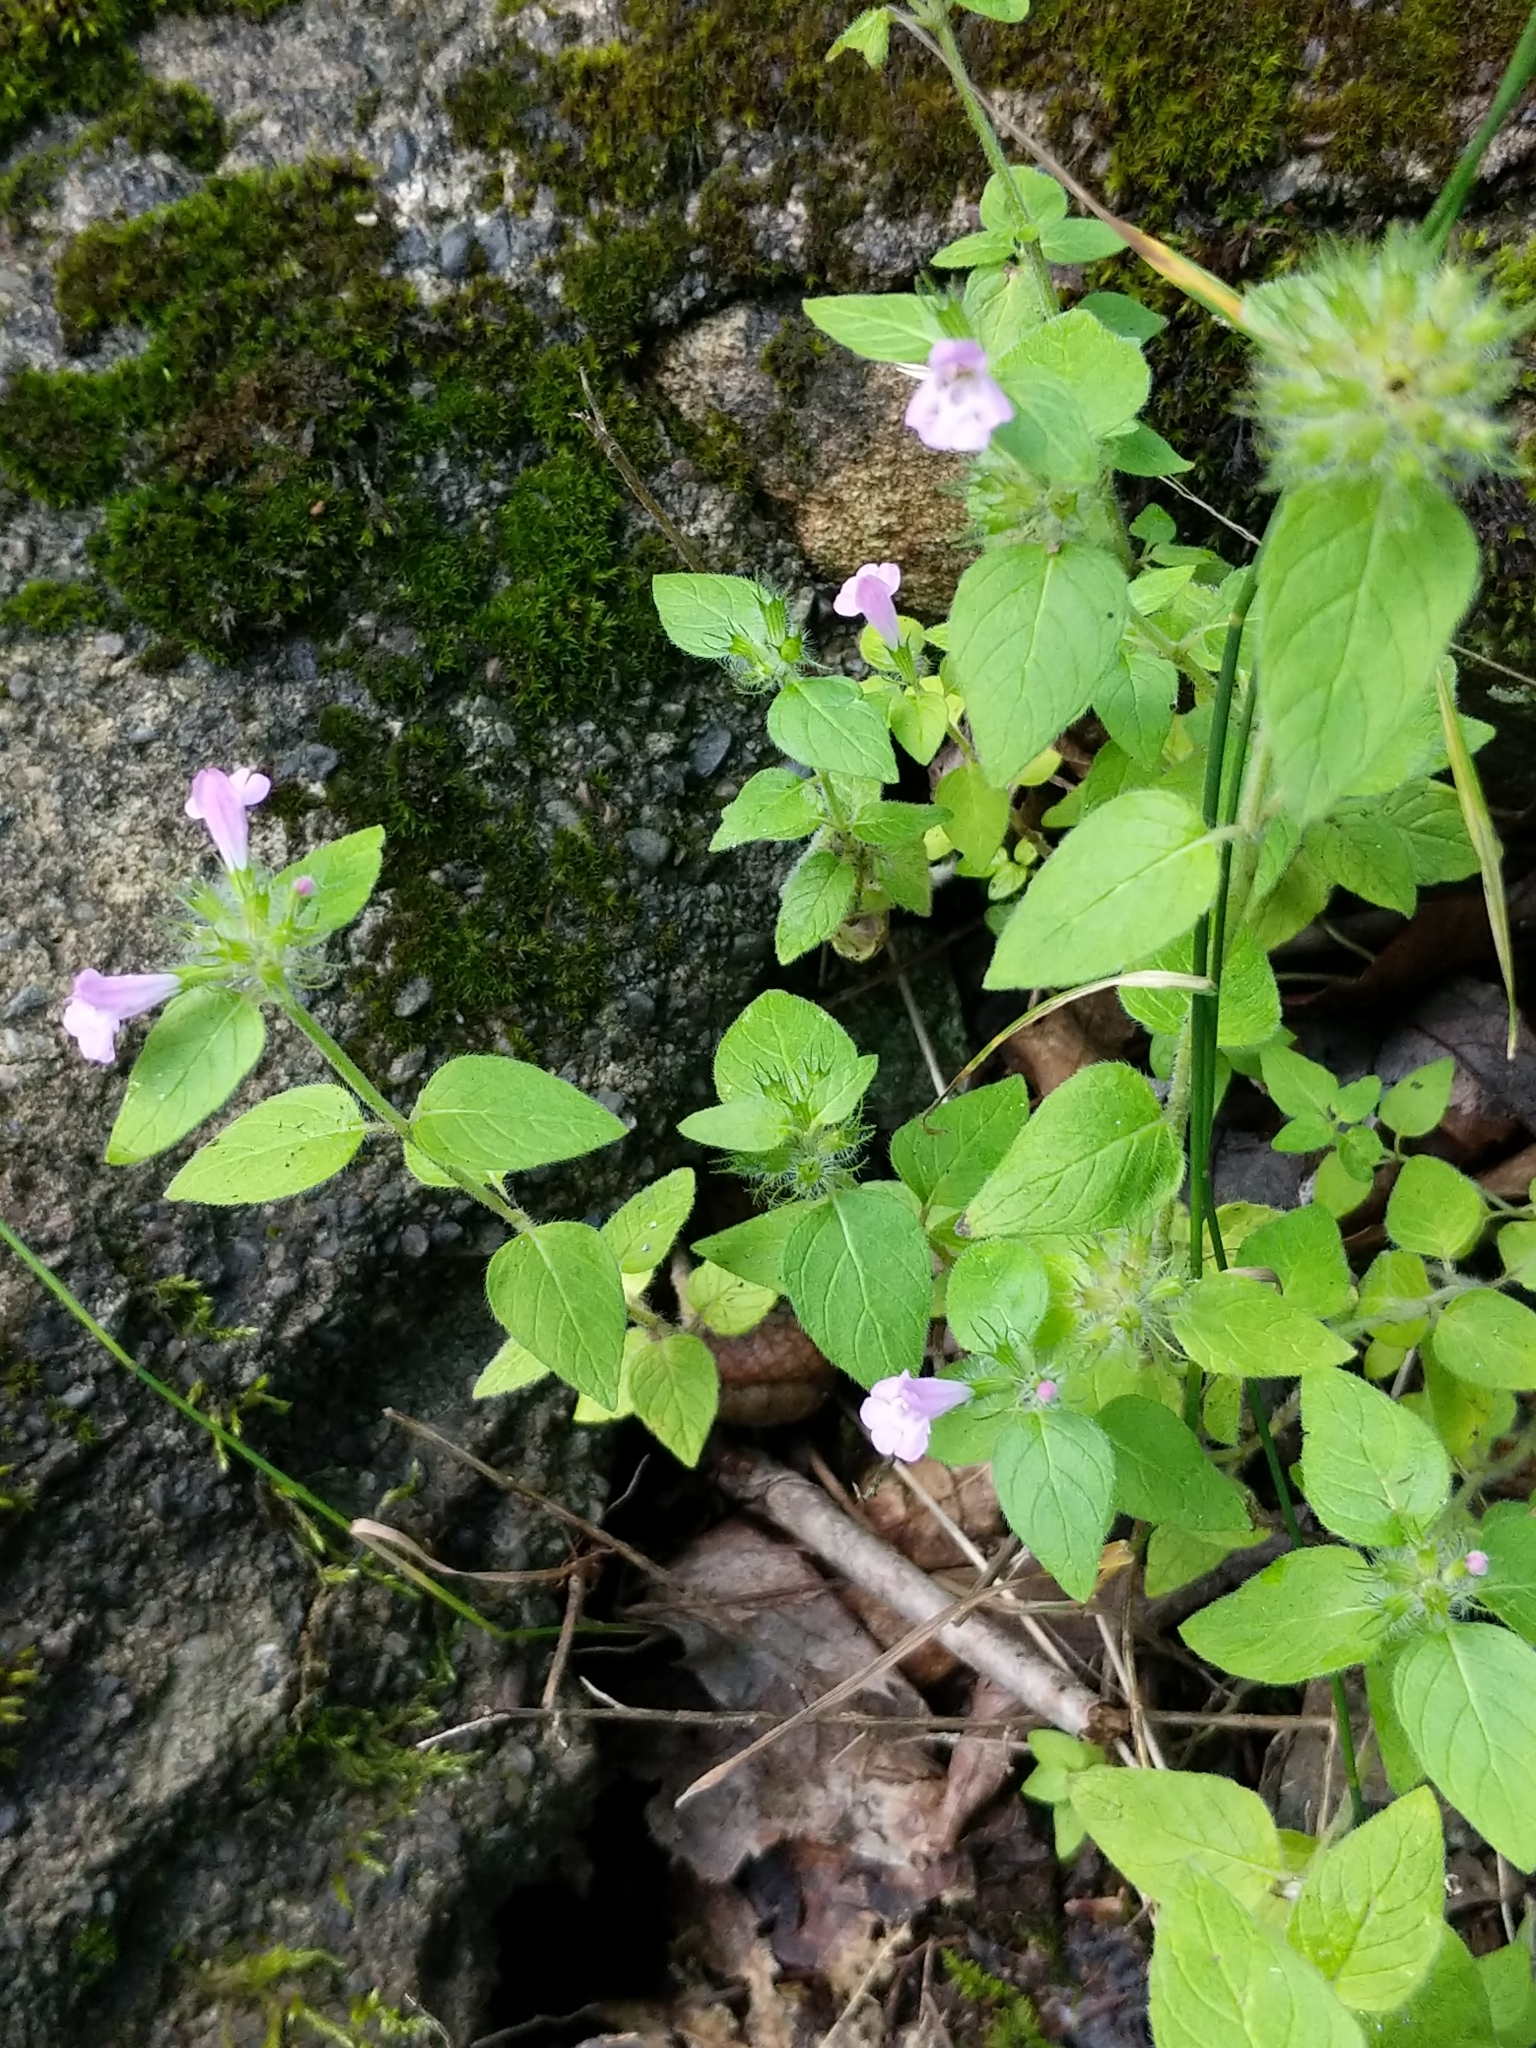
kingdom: Plantae
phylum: Tracheophyta
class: Magnoliopsida
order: Lamiales
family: Lamiaceae
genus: Clinopodium
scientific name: Clinopodium vulgare
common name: Wild basil
